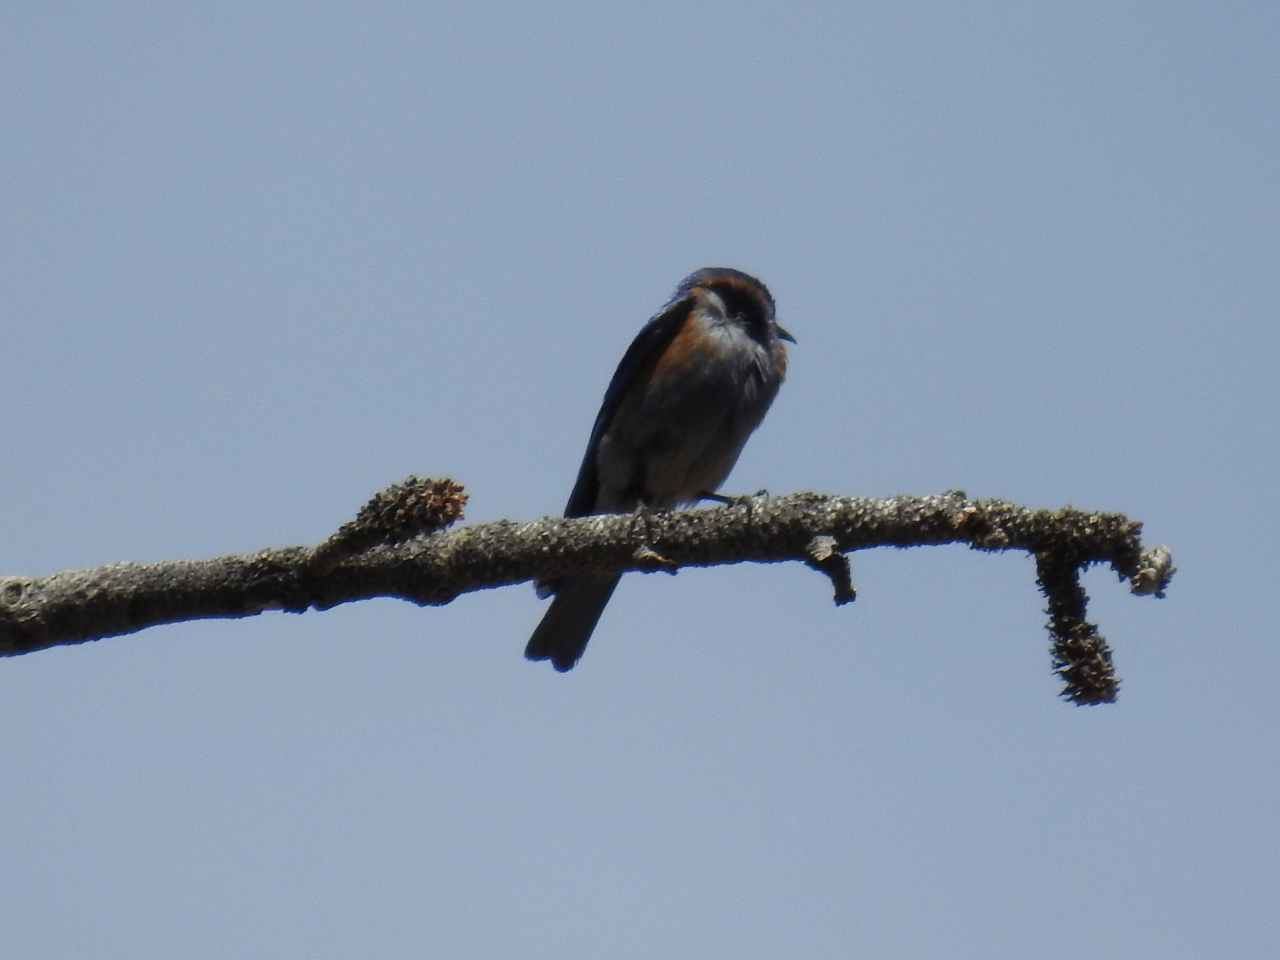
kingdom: Animalia
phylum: Chordata
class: Aves
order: Passeriformes
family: Turdidae
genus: Sialia
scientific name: Sialia mexicana
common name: Western bluebird
